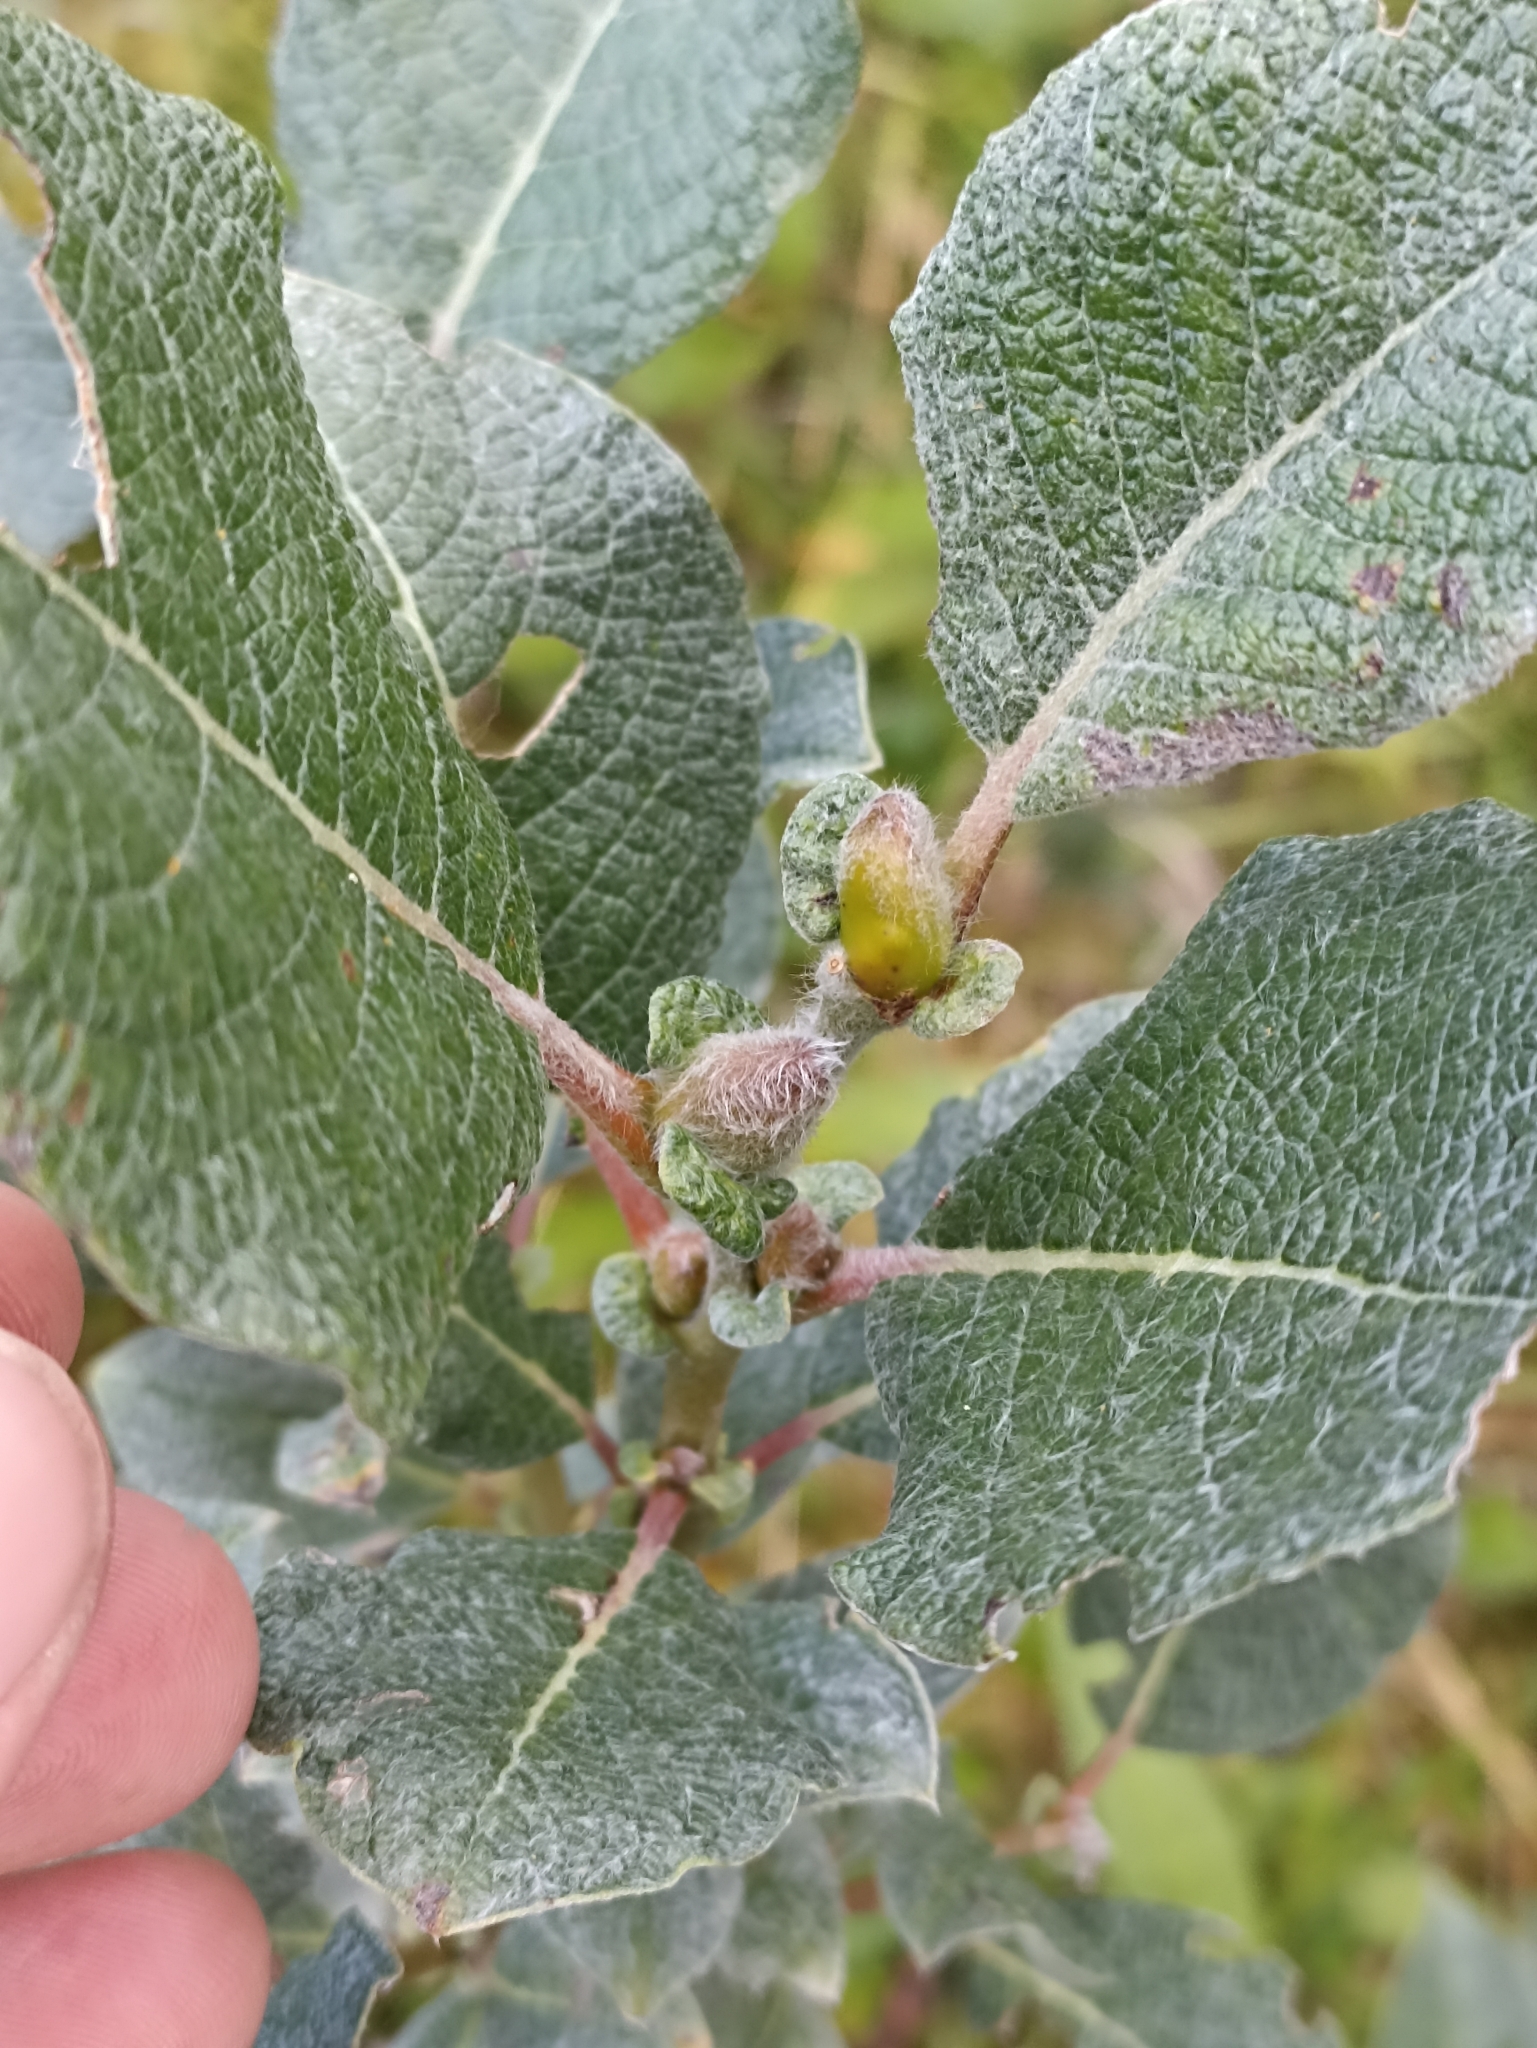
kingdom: Plantae
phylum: Tracheophyta
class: Magnoliopsida
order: Malpighiales
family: Salicaceae
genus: Salix
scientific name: Salix lanata
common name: Woolly willow
